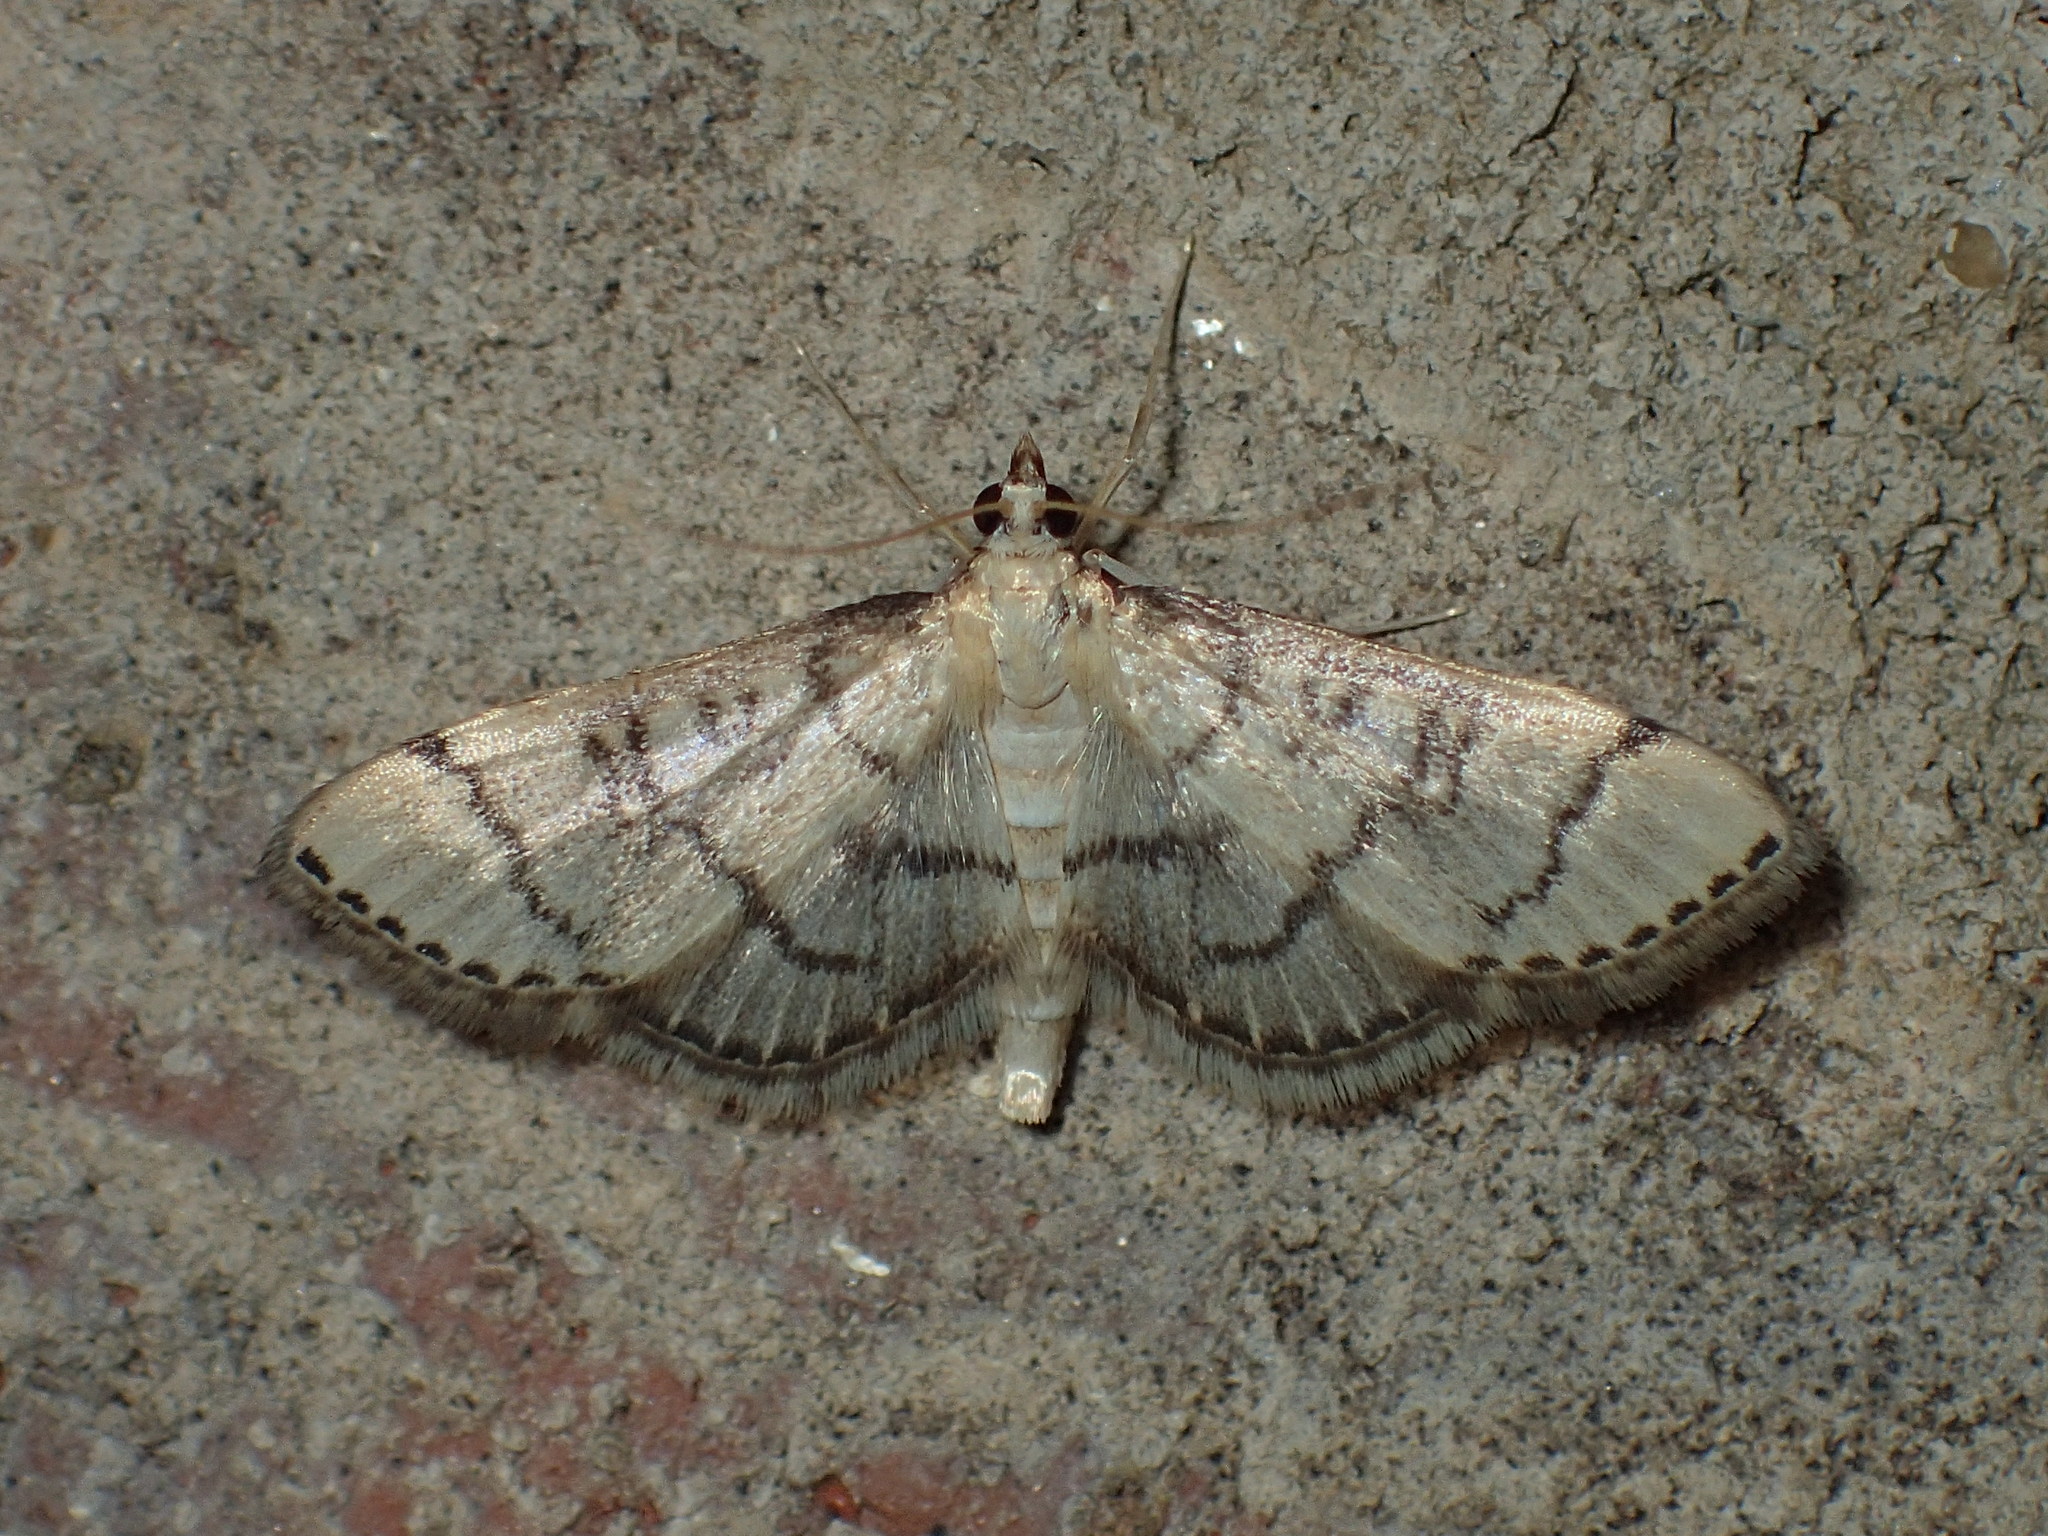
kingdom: Animalia
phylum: Arthropoda
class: Insecta
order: Lepidoptera
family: Crambidae
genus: Lamprosema
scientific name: Lamprosema Blepharomastix ranalis
